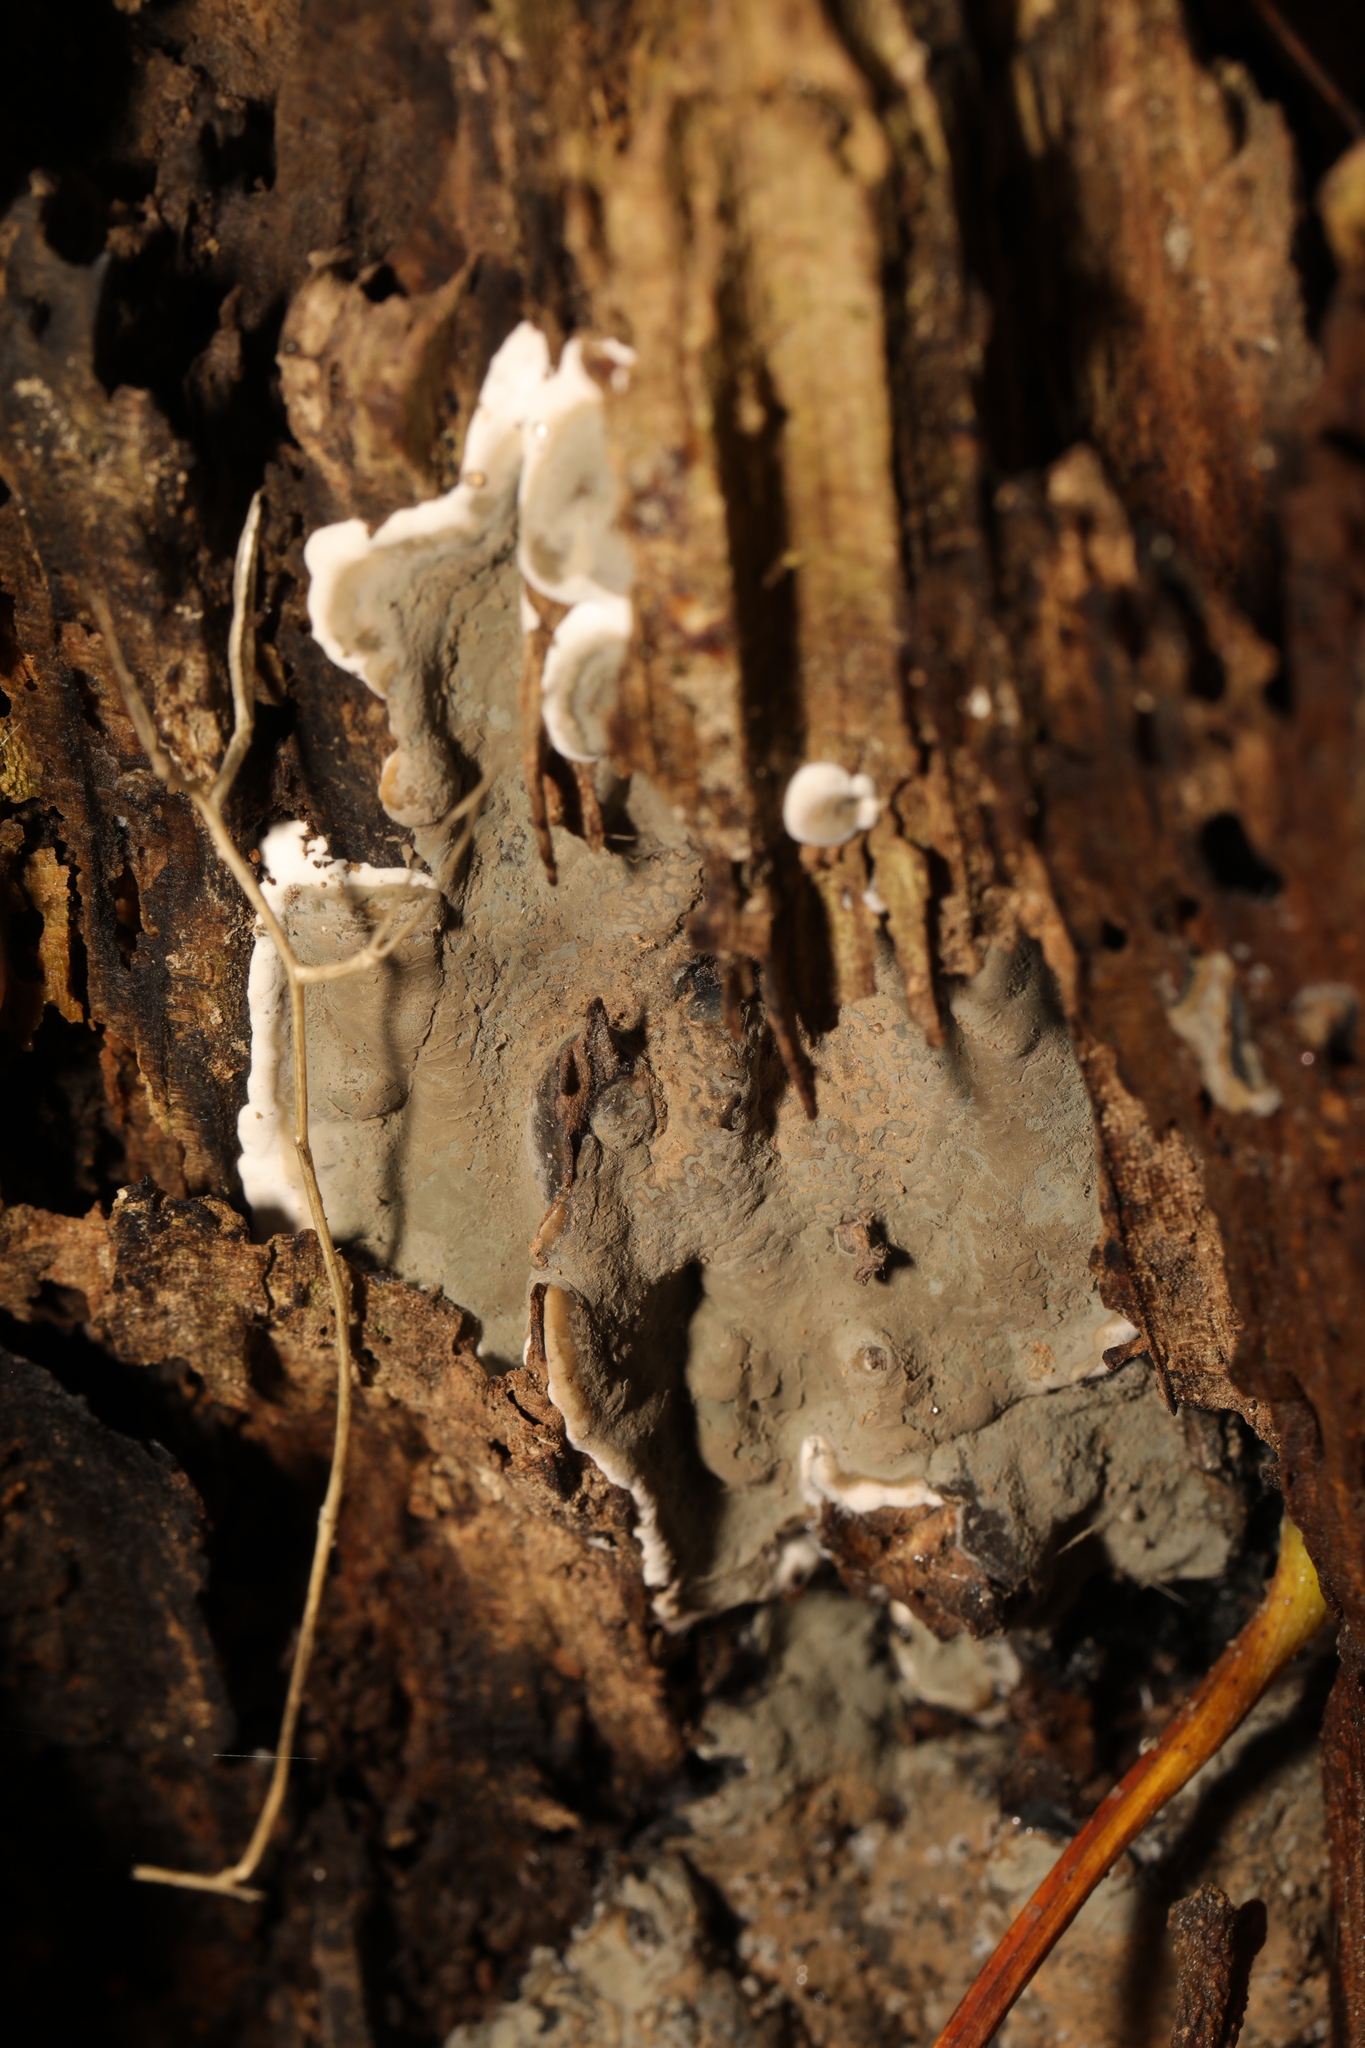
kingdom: Fungi
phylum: Ascomycota
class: Sordariomycetes
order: Xylariales
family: Xylariaceae
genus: Kretzschmaria
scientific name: Kretzschmaria deusta
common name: Brittle cinder
